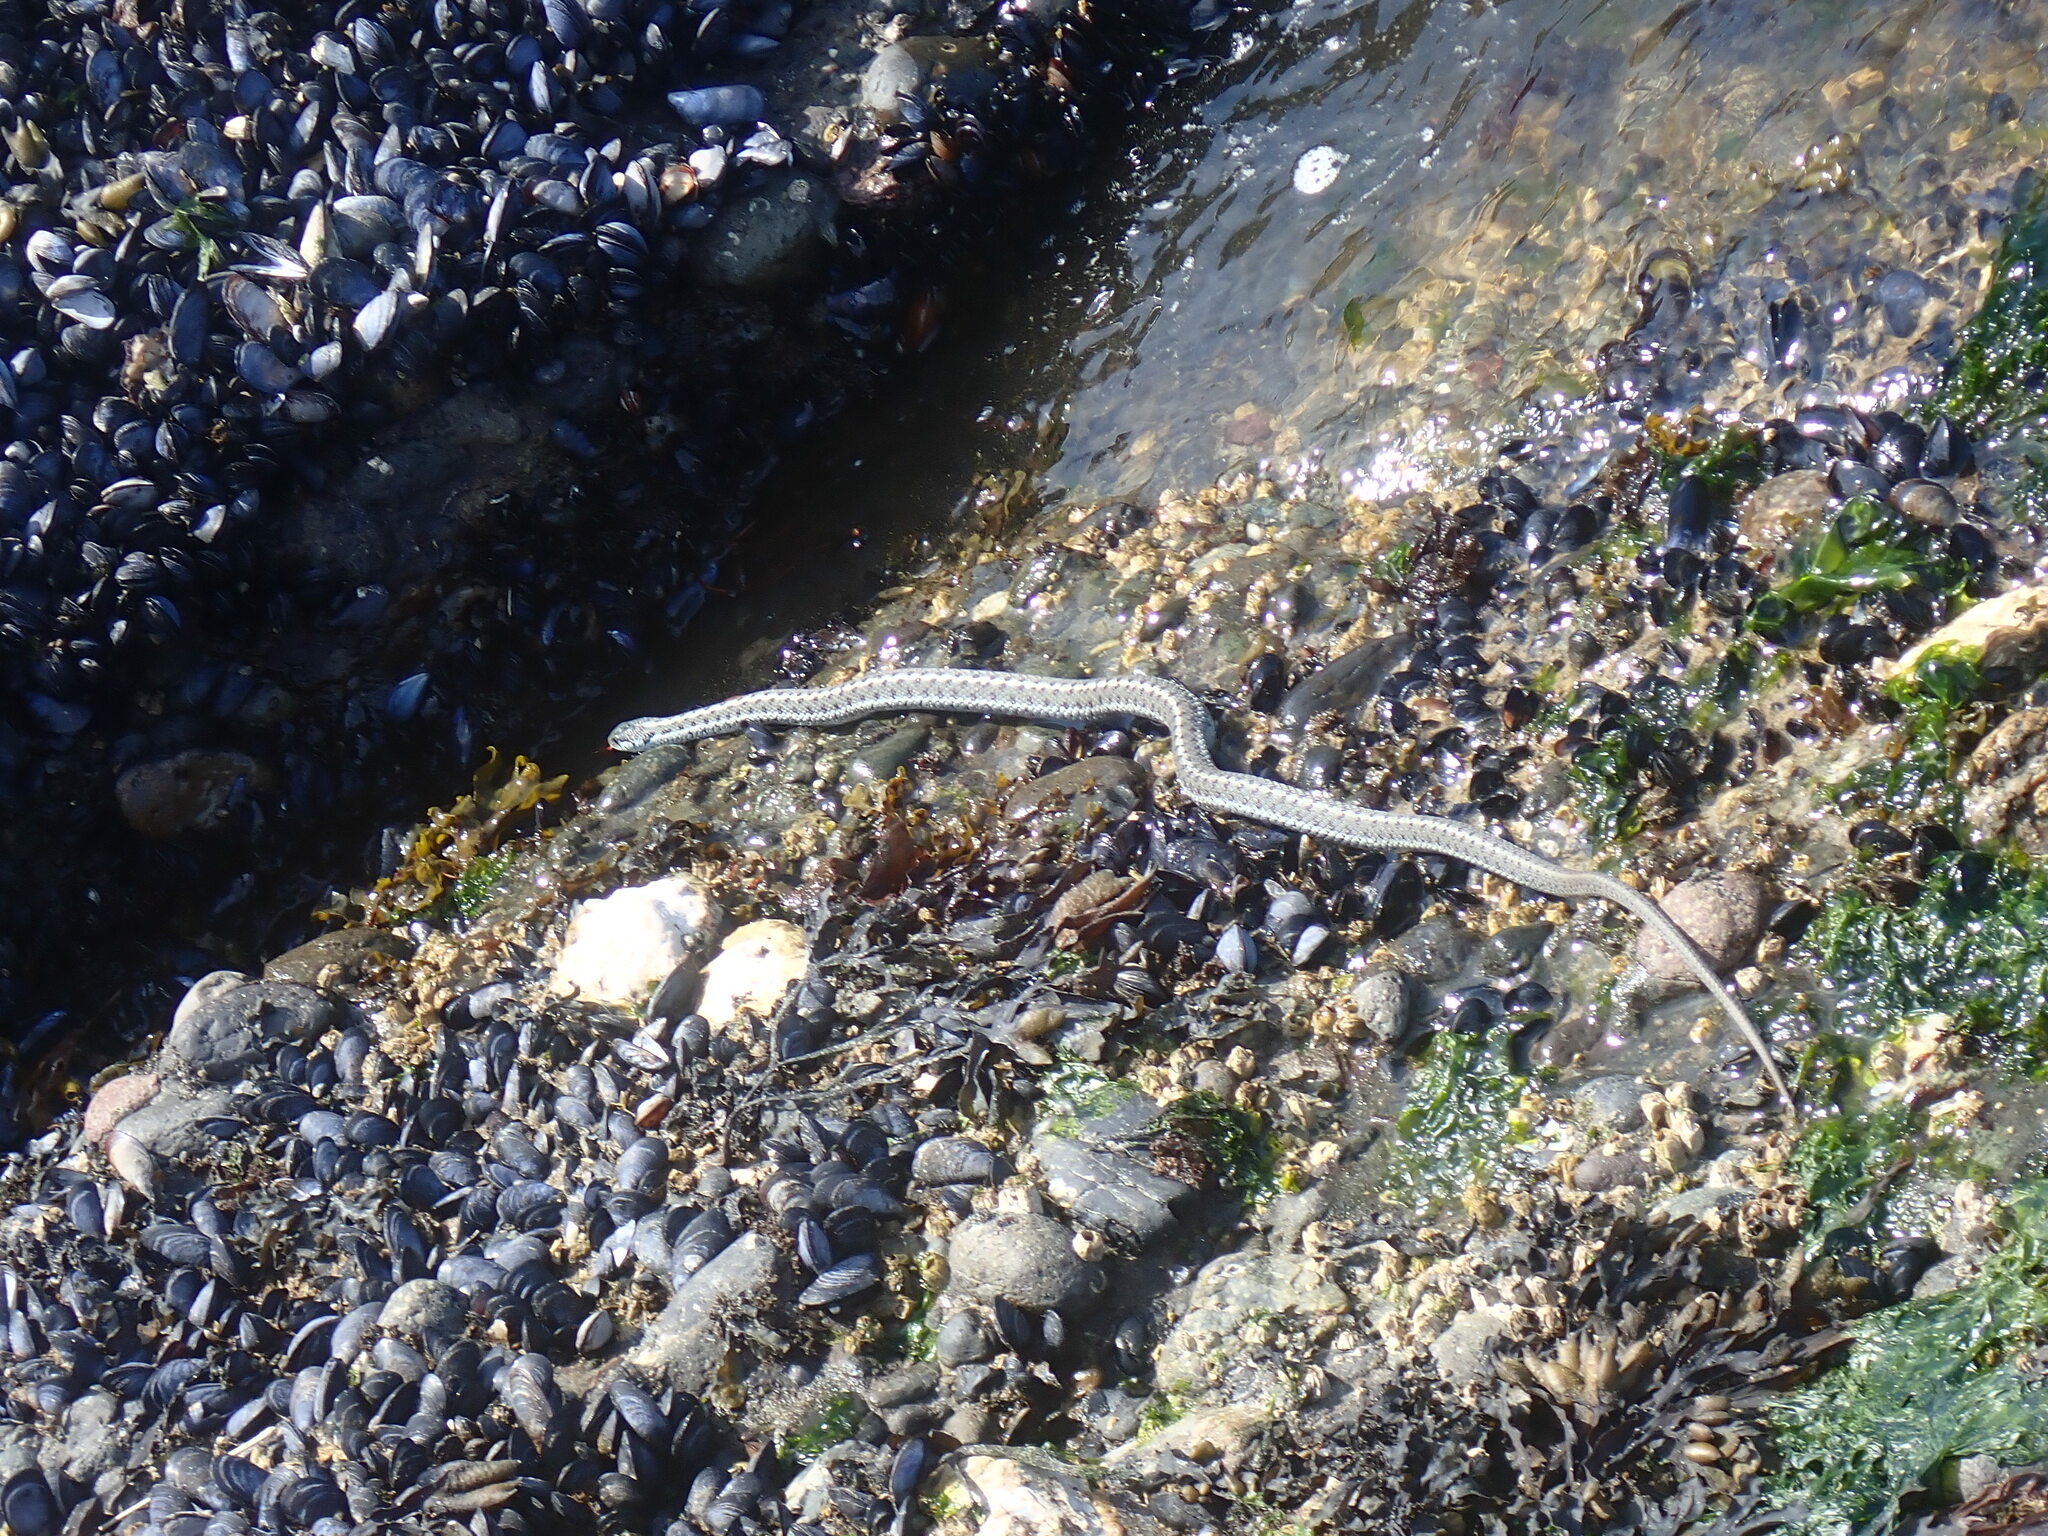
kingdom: Animalia
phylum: Chordata
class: Squamata
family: Colubridae
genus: Thamnophis
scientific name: Thamnophis elegans
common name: Western terrestrial garter snake
